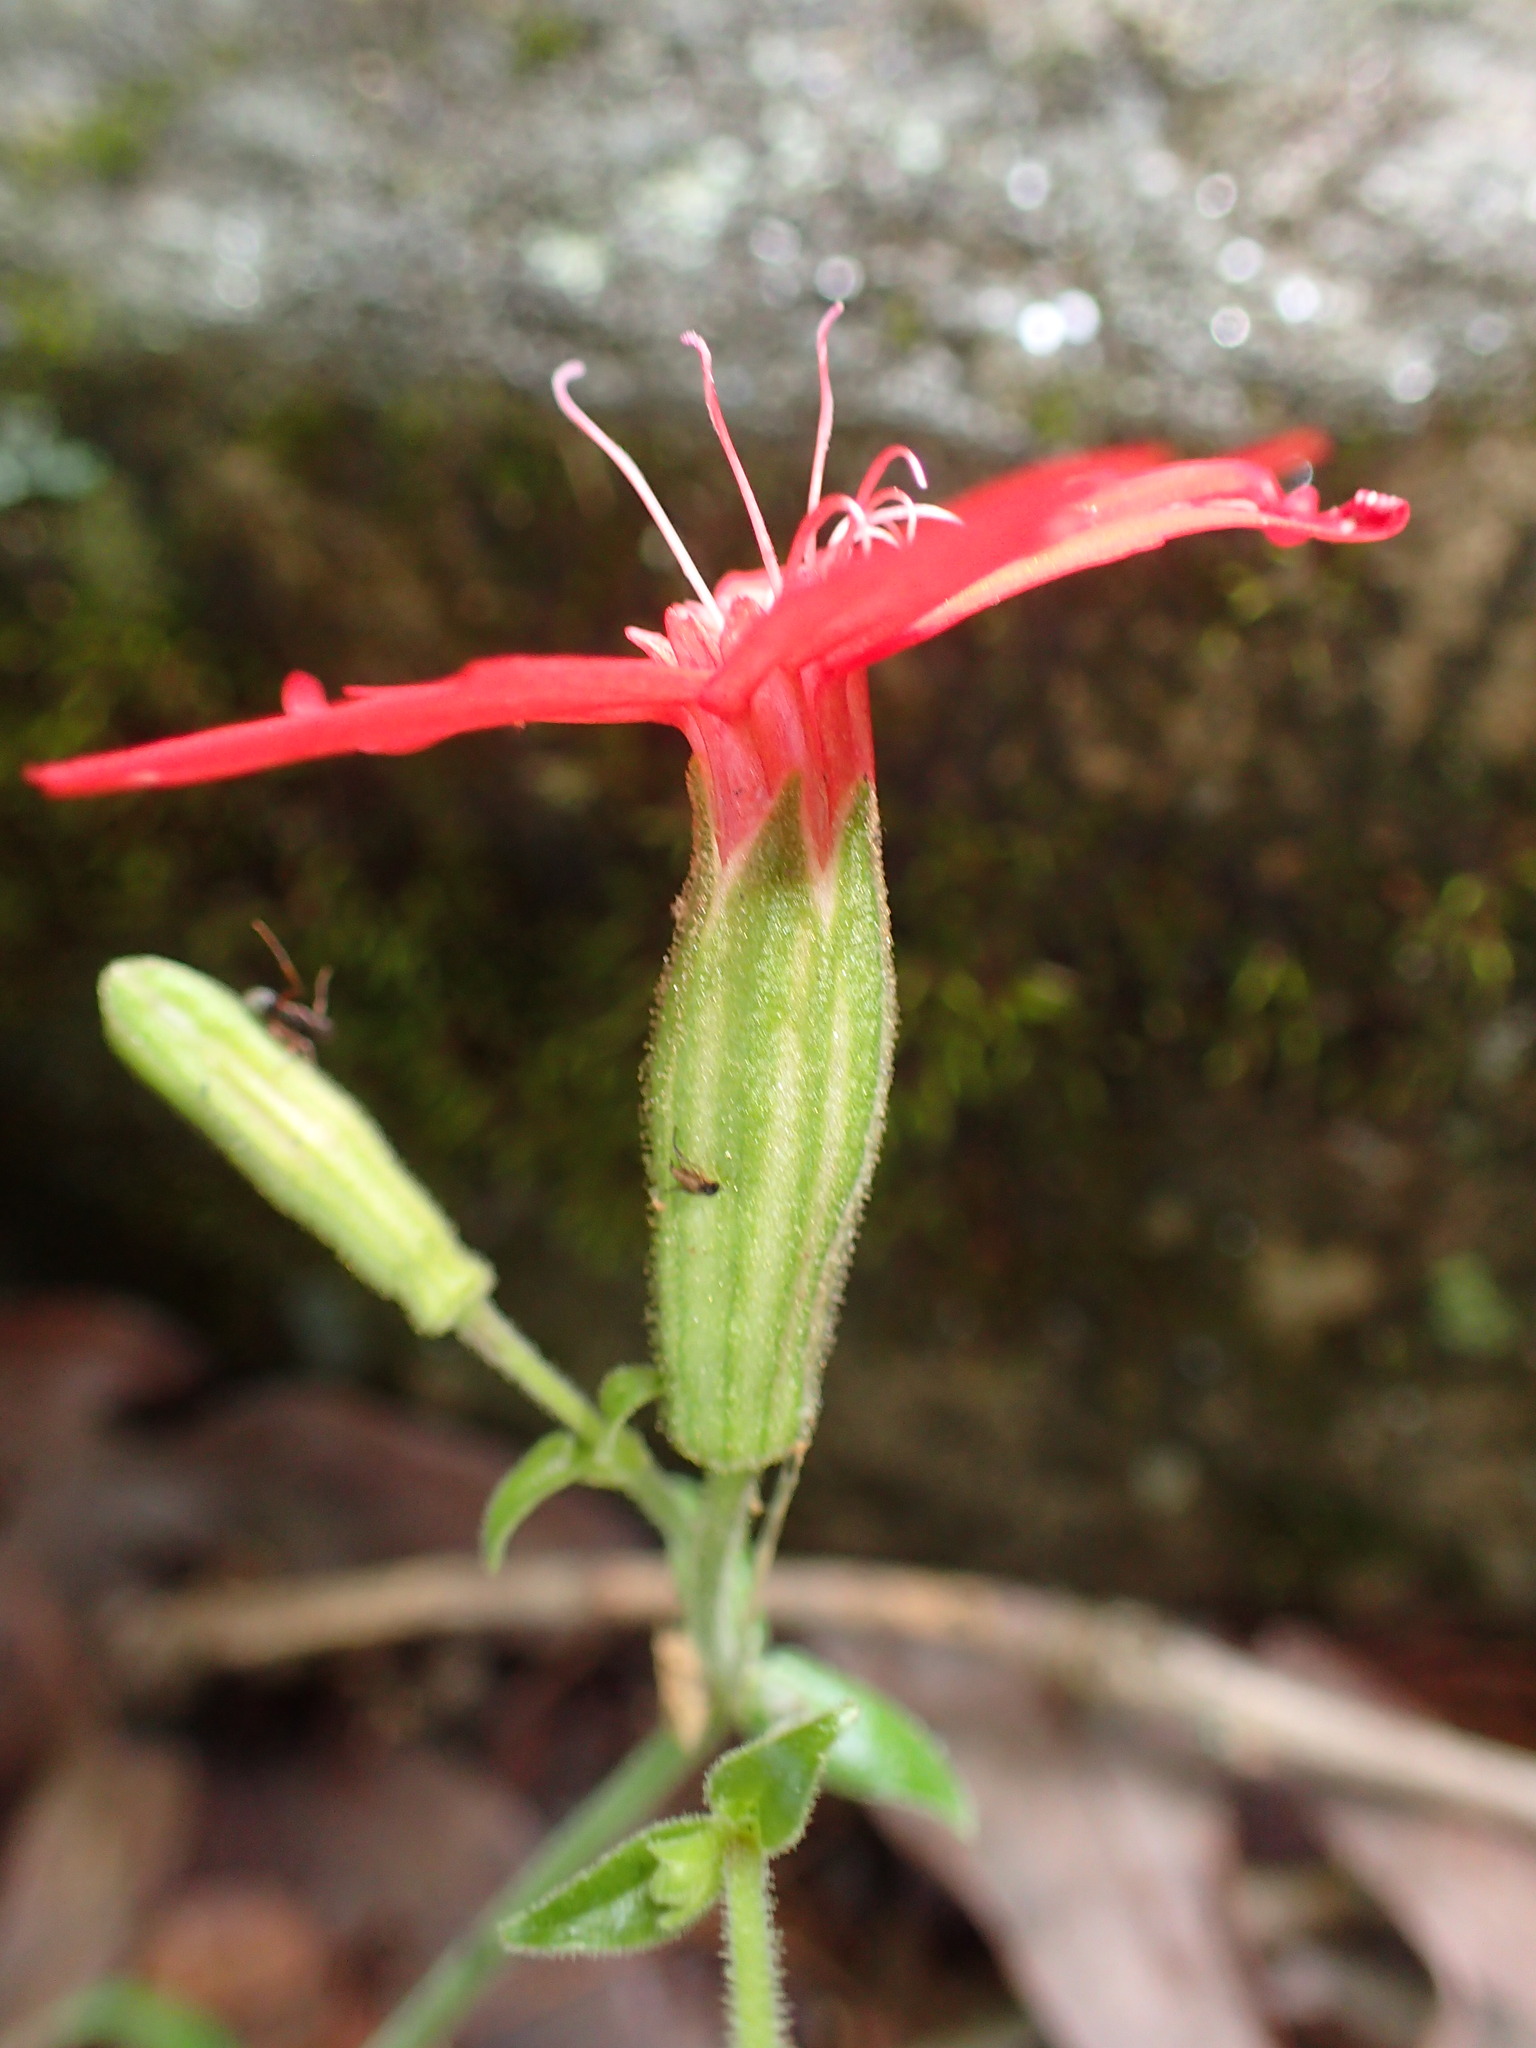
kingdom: Plantae
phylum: Tracheophyta
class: Magnoliopsida
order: Caryophyllales
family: Caryophyllaceae
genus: Silene
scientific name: Silene virginica
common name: Fire-pink
